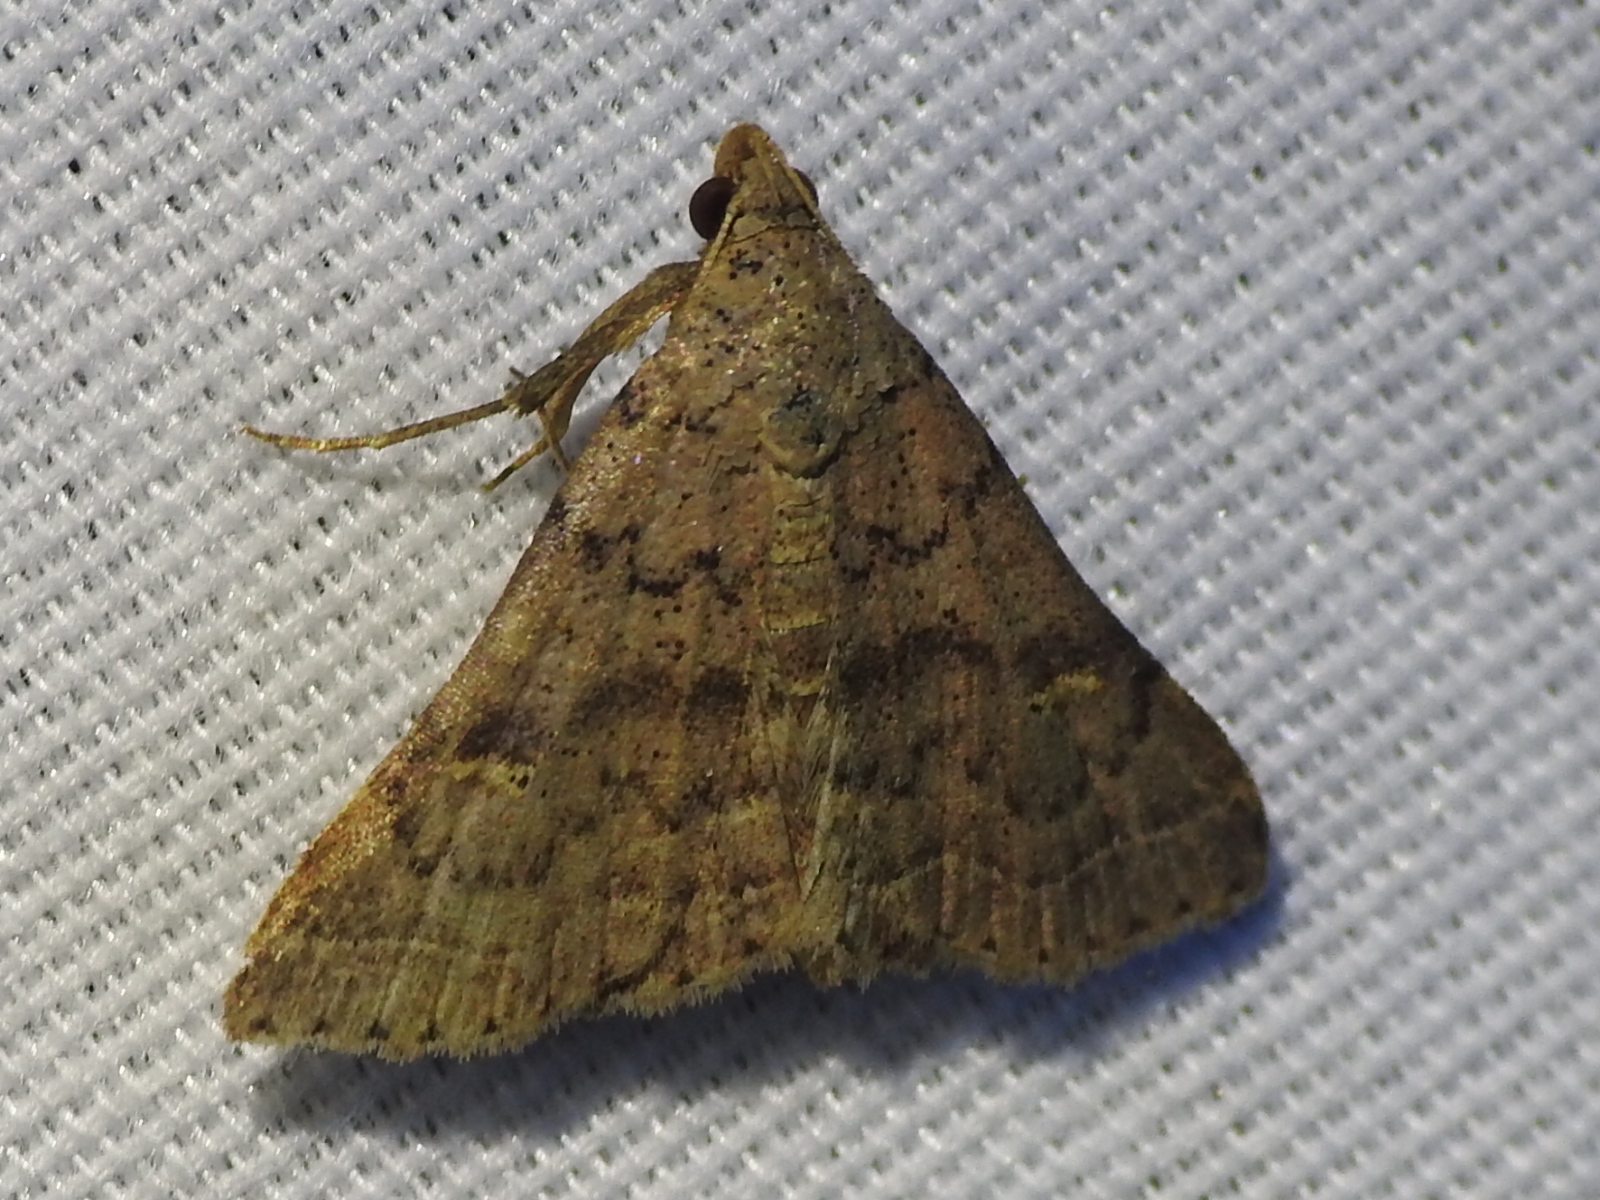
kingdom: Animalia
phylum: Arthropoda
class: Insecta
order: Lepidoptera
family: Erebidae
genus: Bleptina
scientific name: Bleptina caradrinalis
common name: Bent-winged owlet
